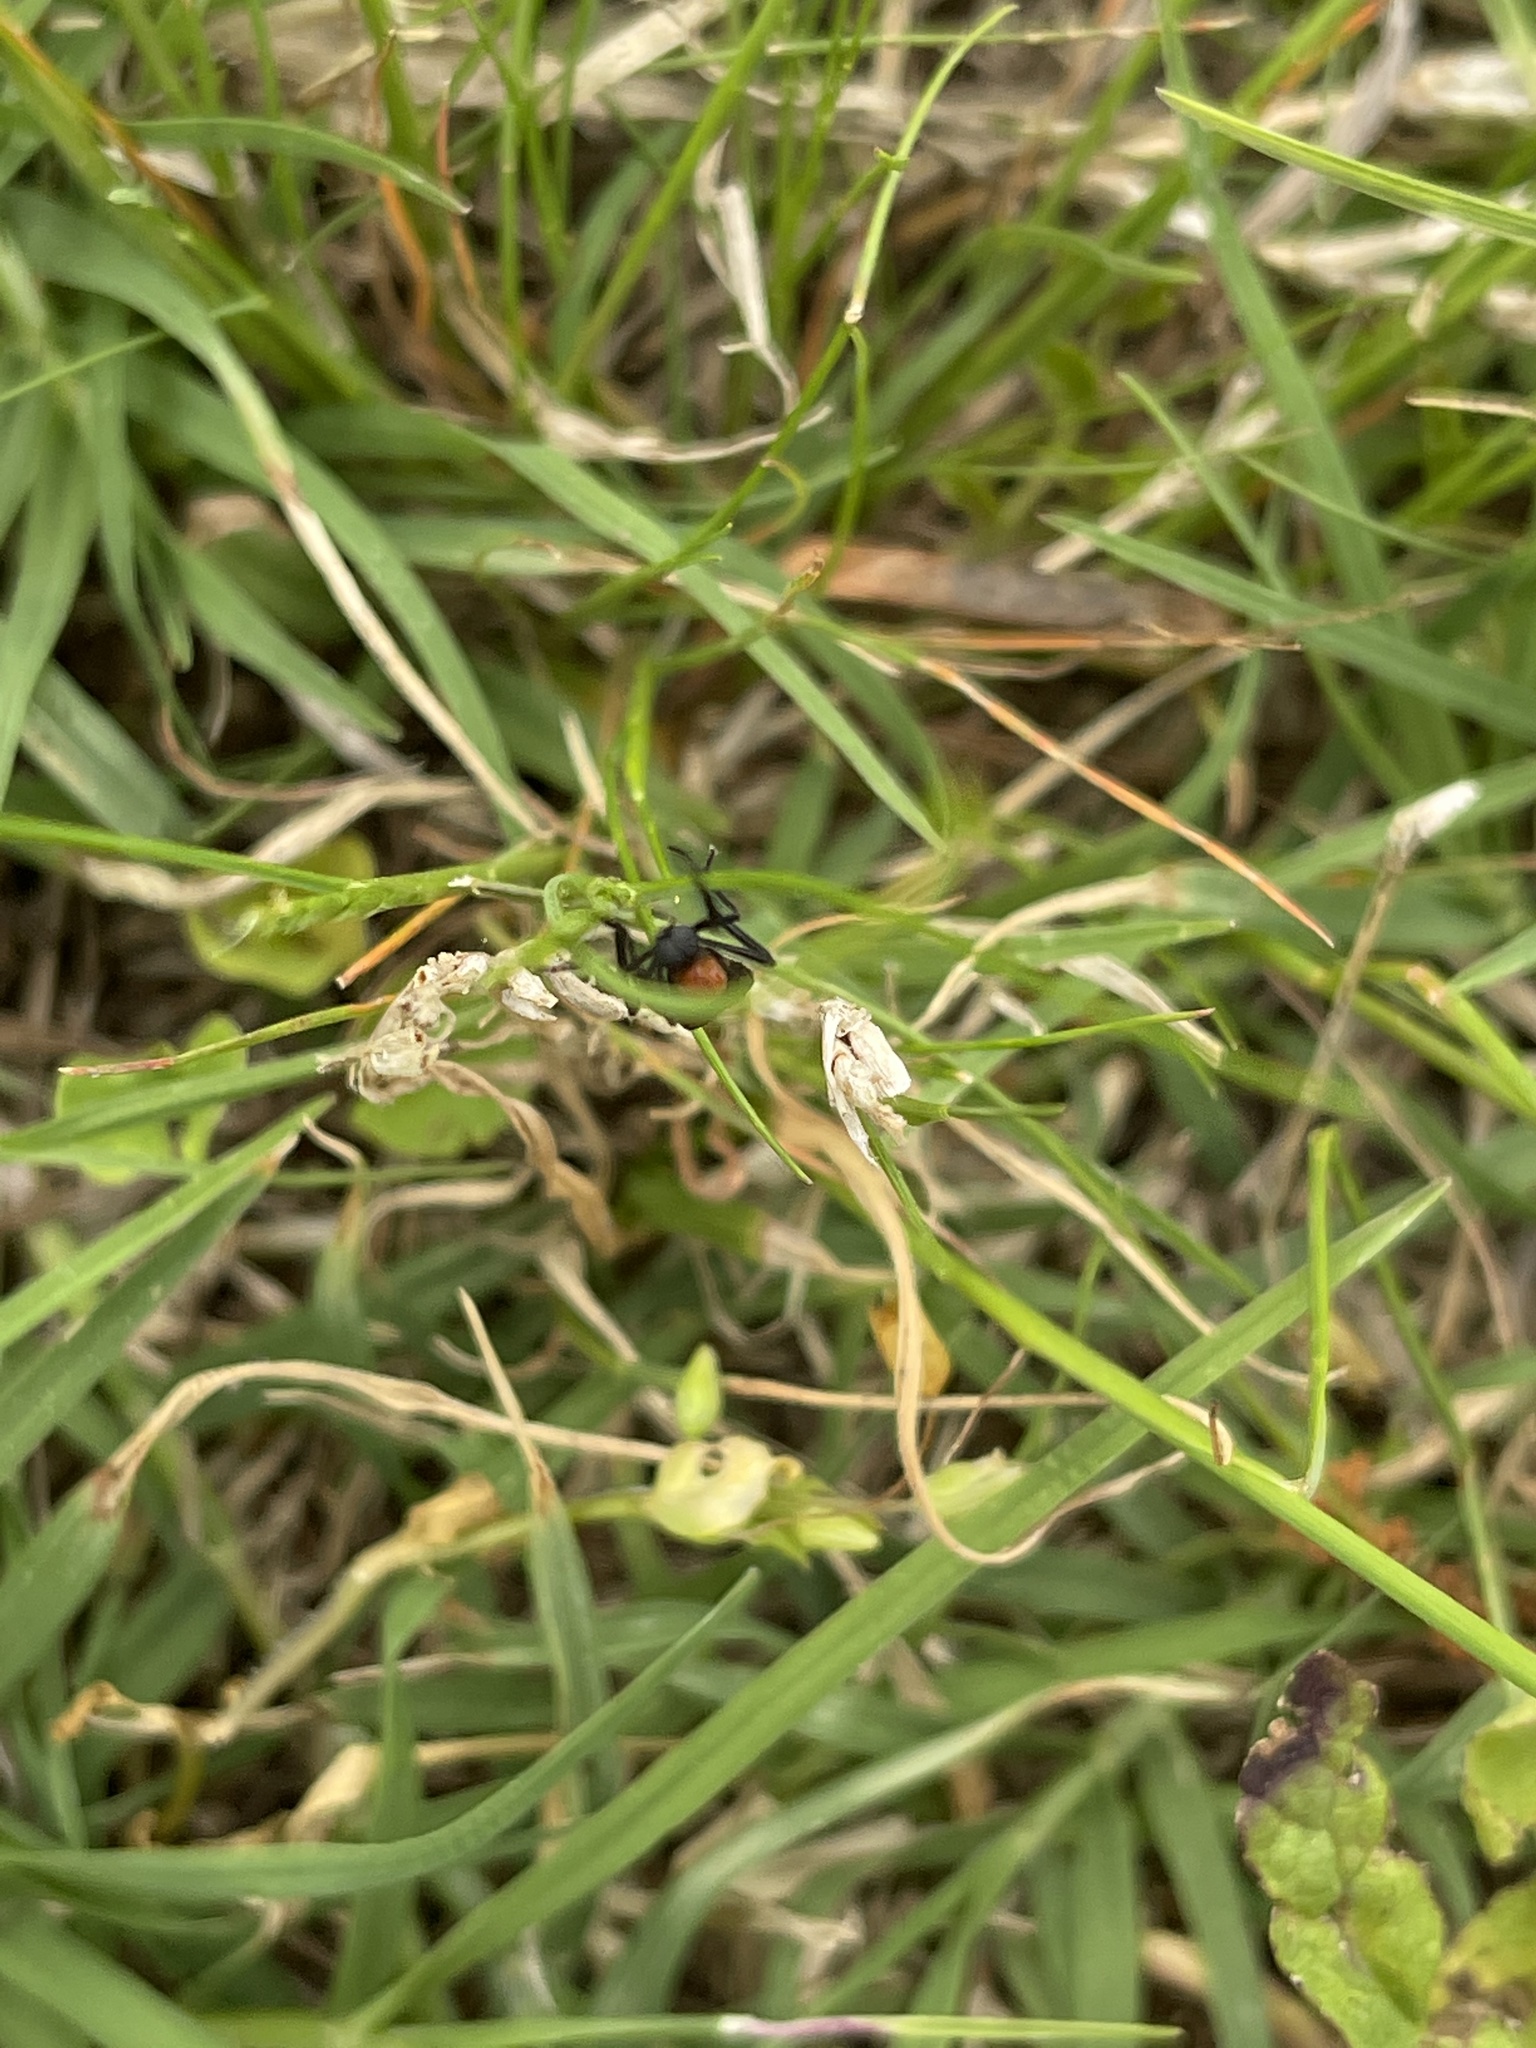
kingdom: Animalia
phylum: Arthropoda
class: Insecta
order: Diptera
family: Bibionidae
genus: Plecia
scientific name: Plecia nearctica
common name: March fly
